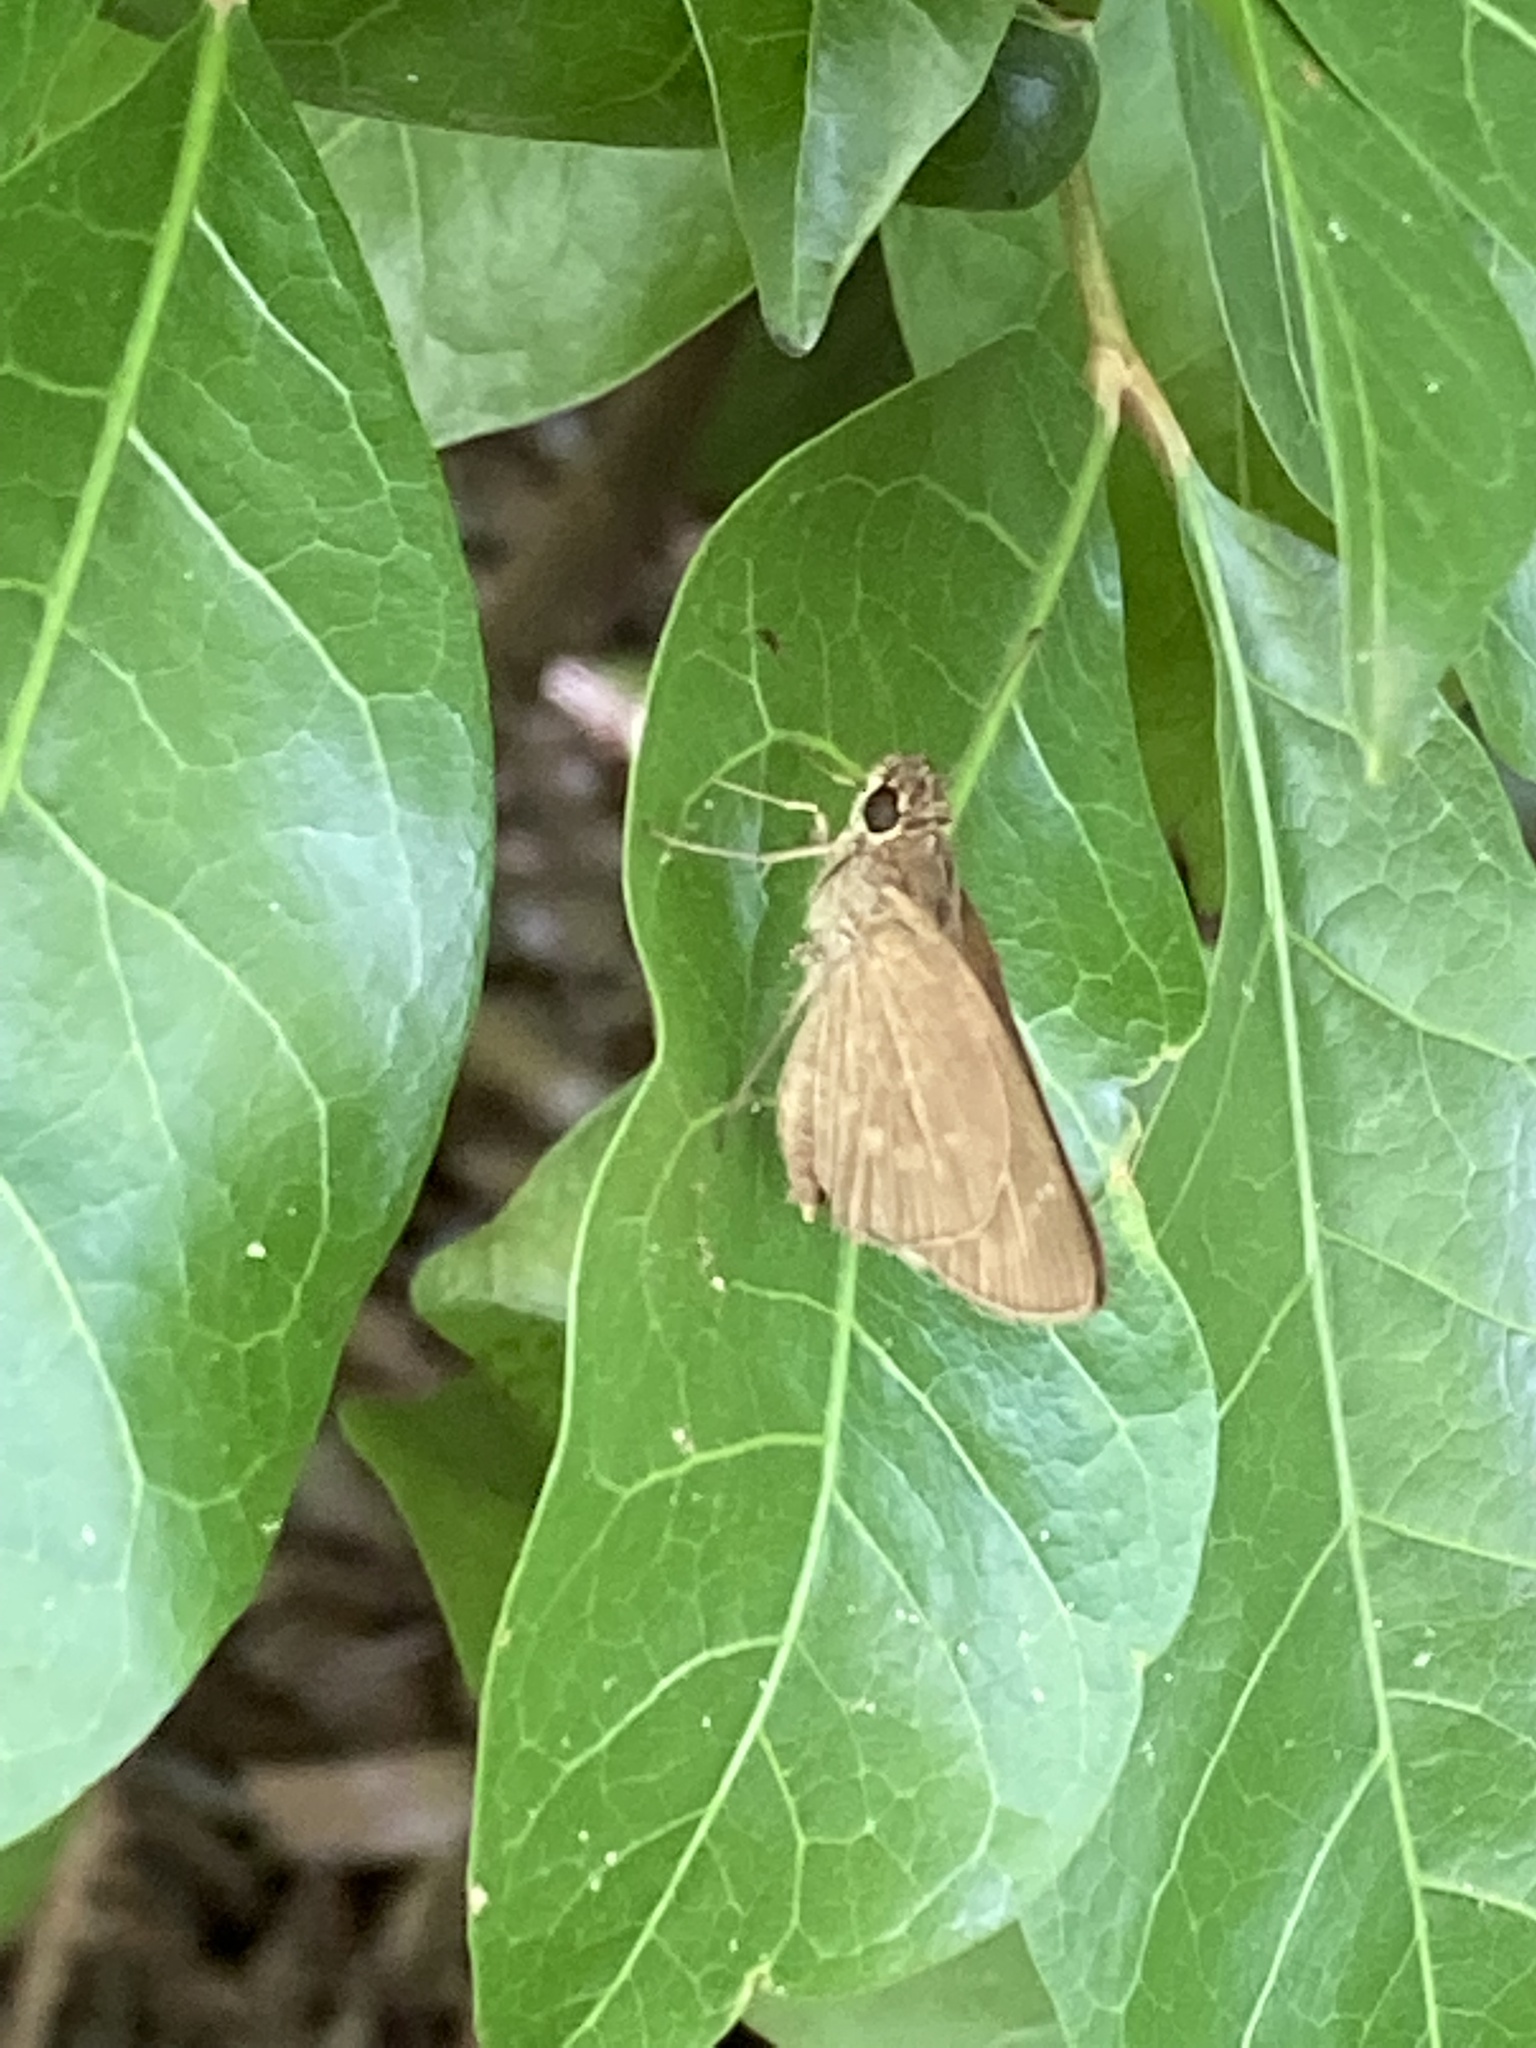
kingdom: Animalia
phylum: Arthropoda
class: Insecta
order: Lepidoptera
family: Hesperiidae
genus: Cymaenes
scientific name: Cymaenes tripunctus
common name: Dingy dotted skipper
